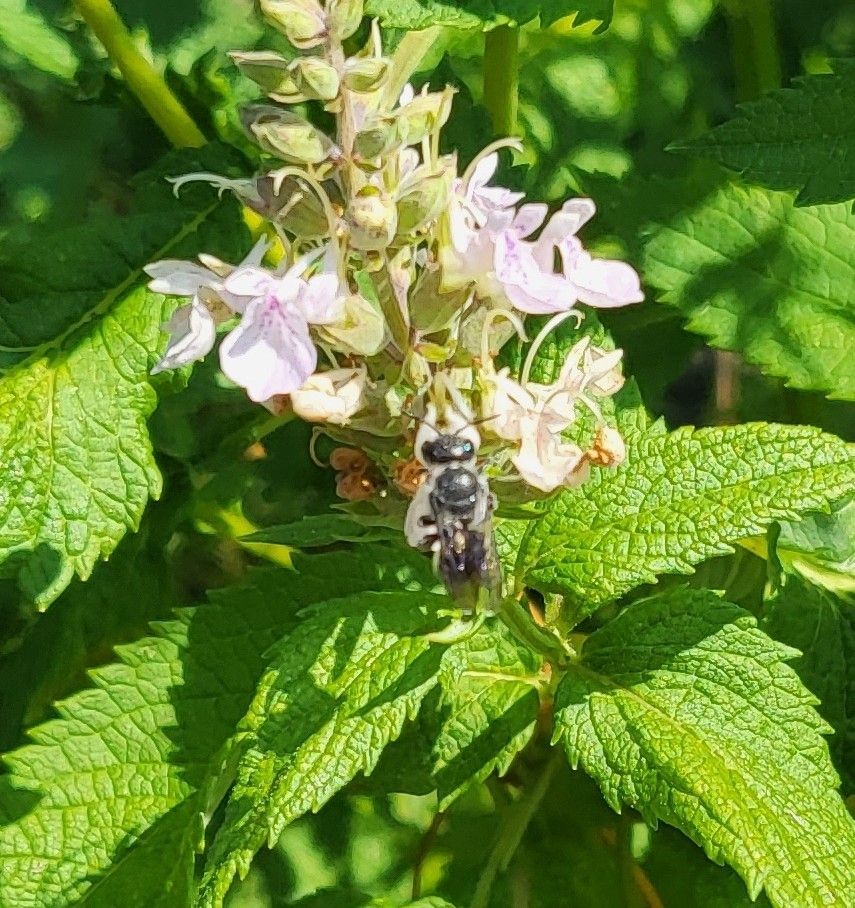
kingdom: Animalia
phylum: Arthropoda
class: Insecta
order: Hymenoptera
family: Megachilidae
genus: Megachile
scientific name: Megachile campanulae
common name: Bellflower resin bee
